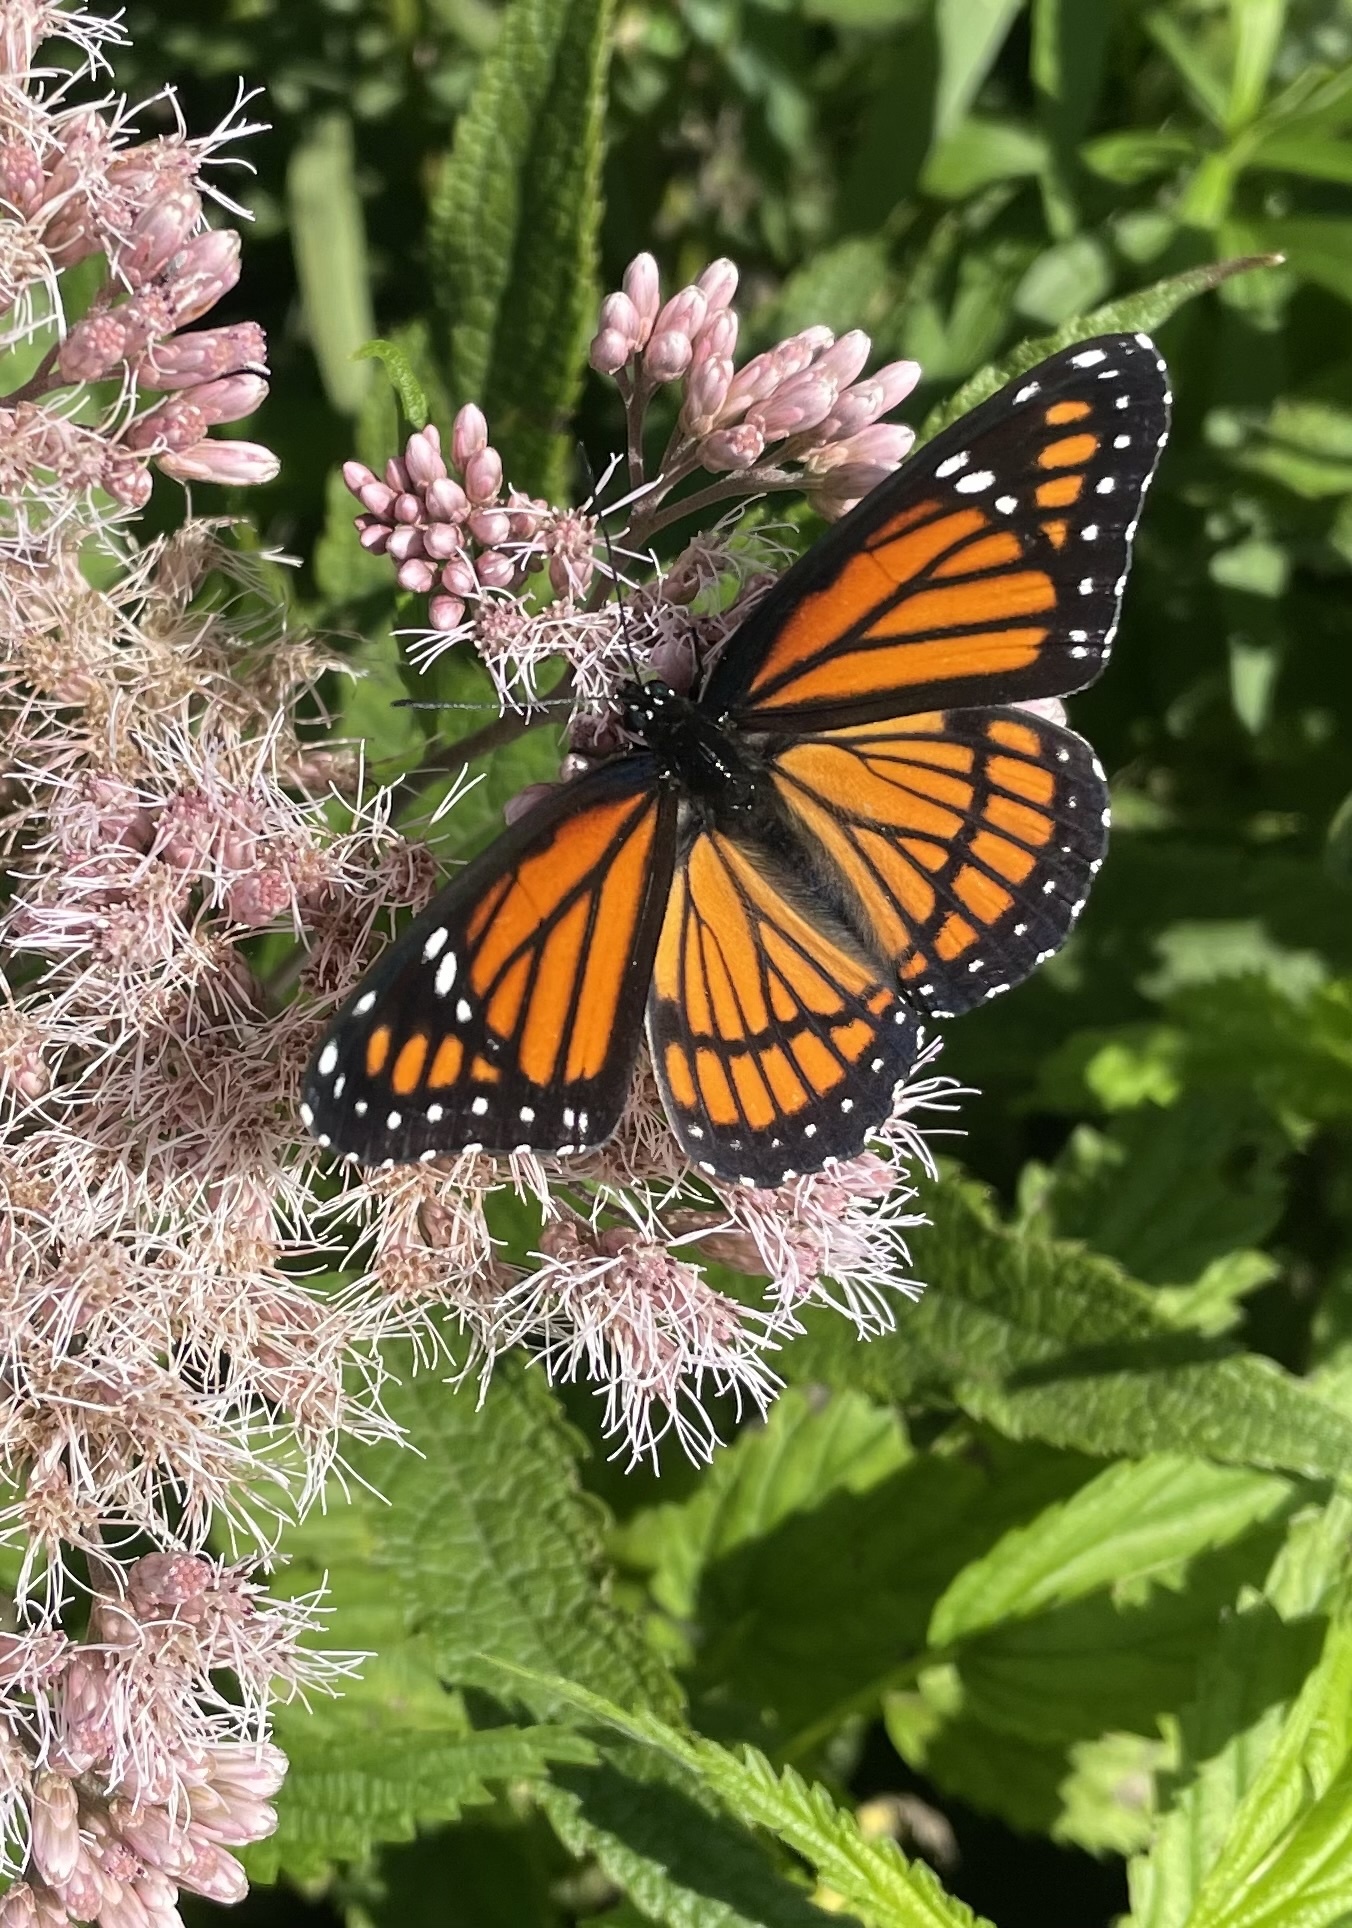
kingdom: Animalia
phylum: Arthropoda
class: Insecta
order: Lepidoptera
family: Nymphalidae
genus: Limenitis
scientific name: Limenitis archippus
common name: Viceroy
